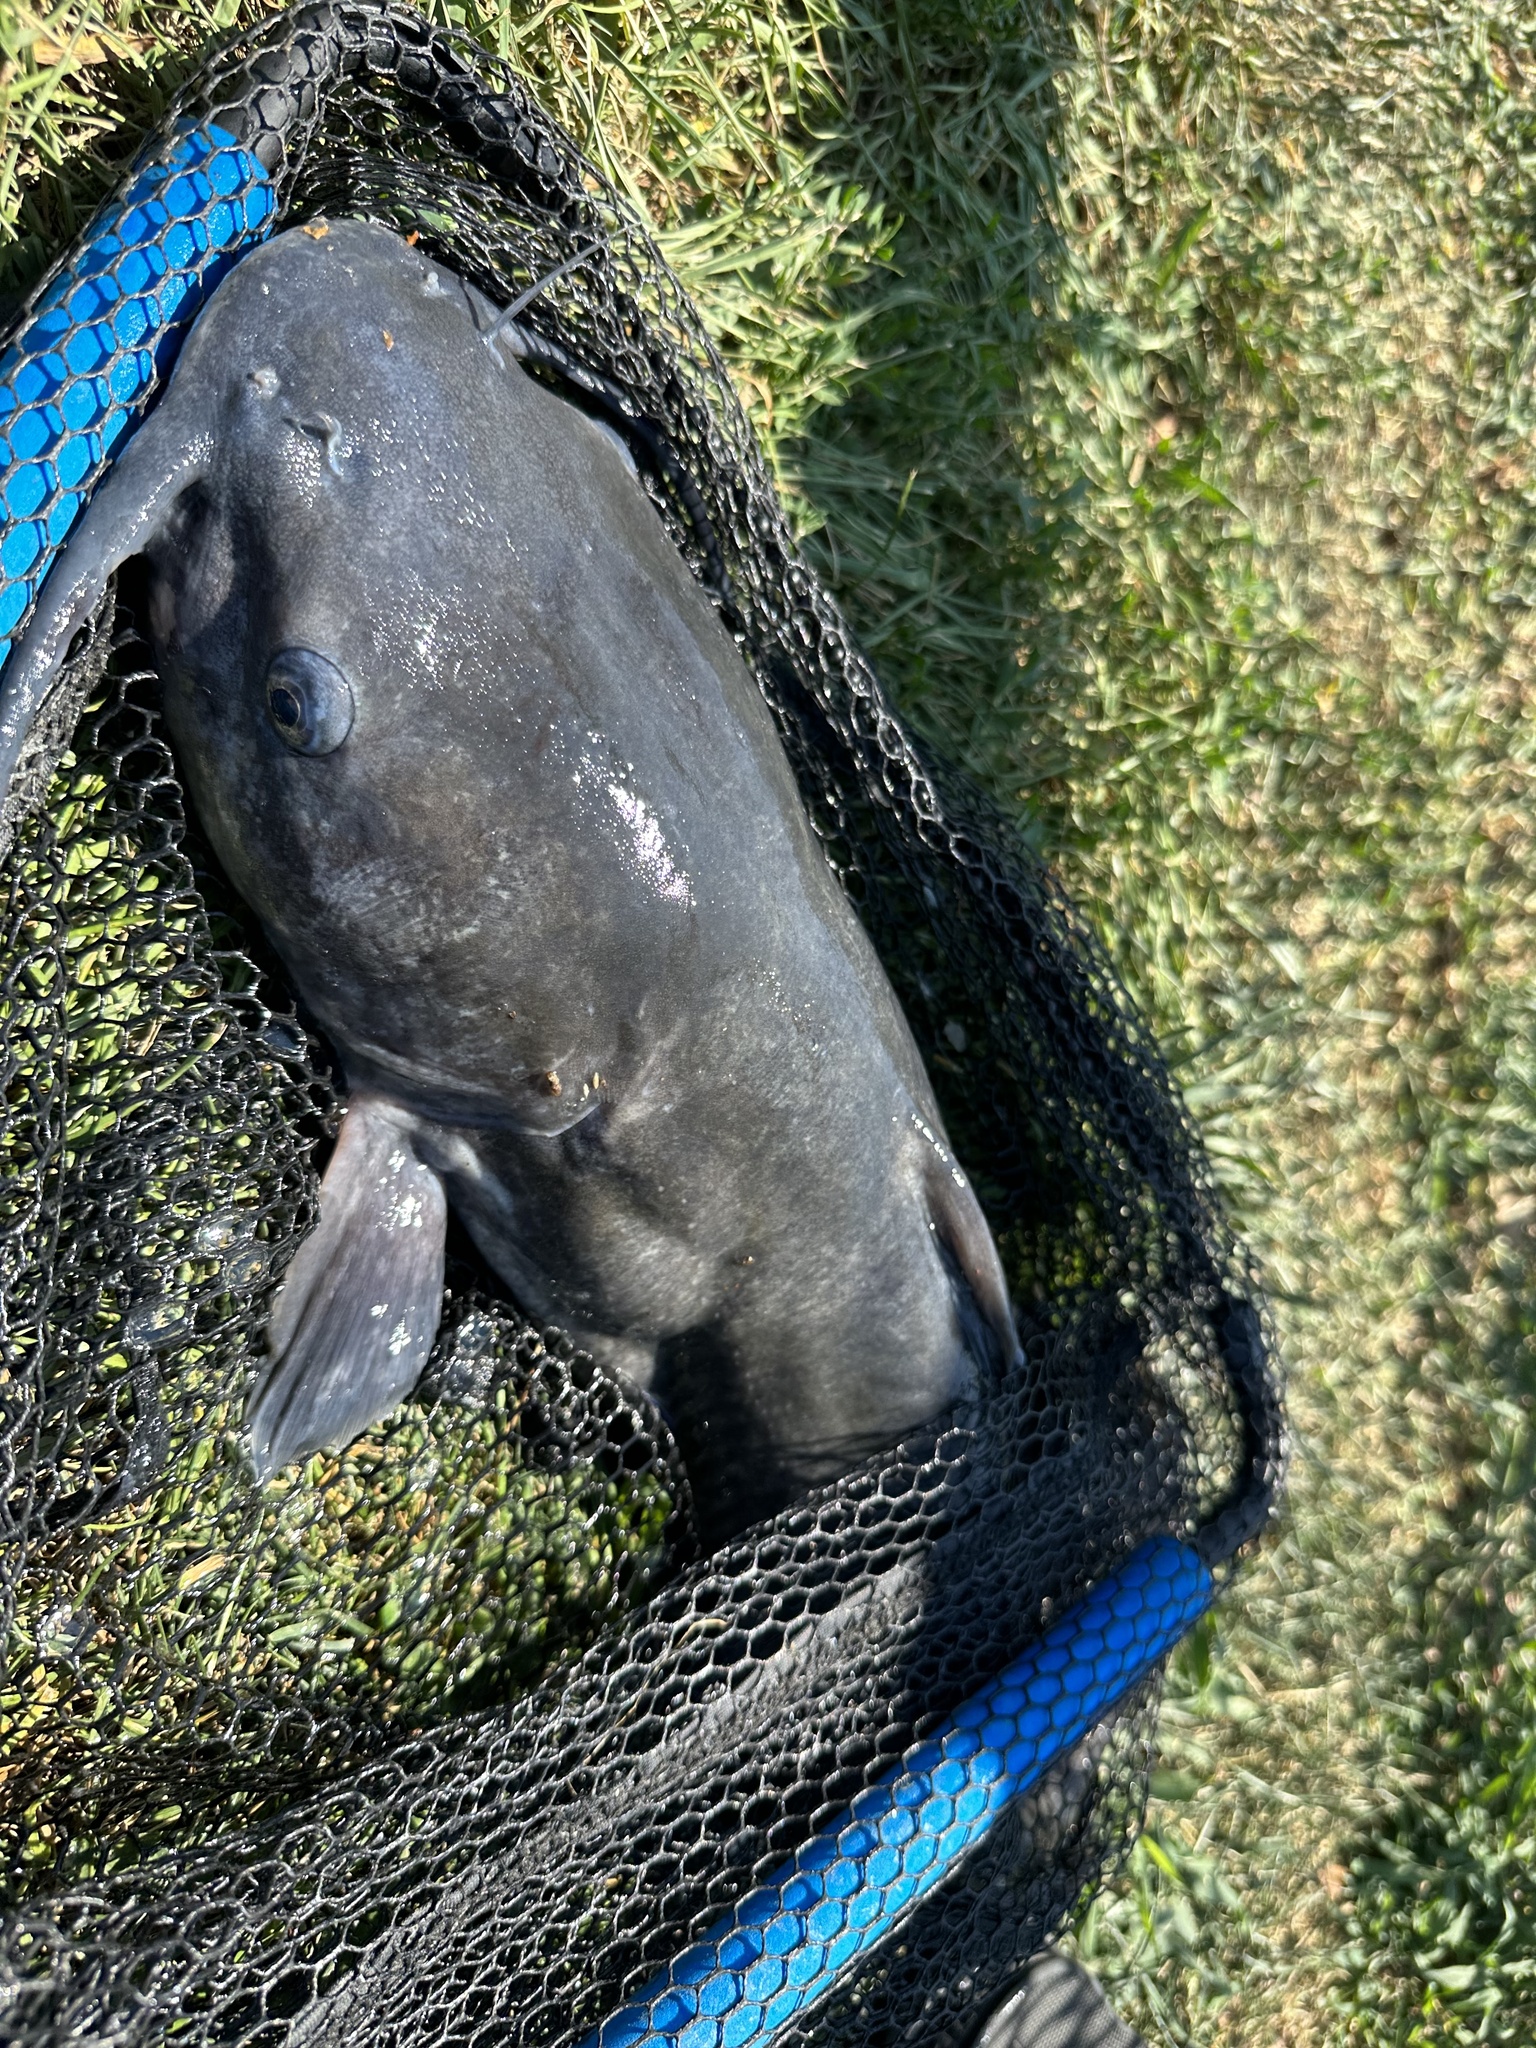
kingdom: Animalia
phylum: Chordata
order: Siluriformes
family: Ictaluridae
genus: Ictalurus
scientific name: Ictalurus punctatus
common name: Channel catfish
